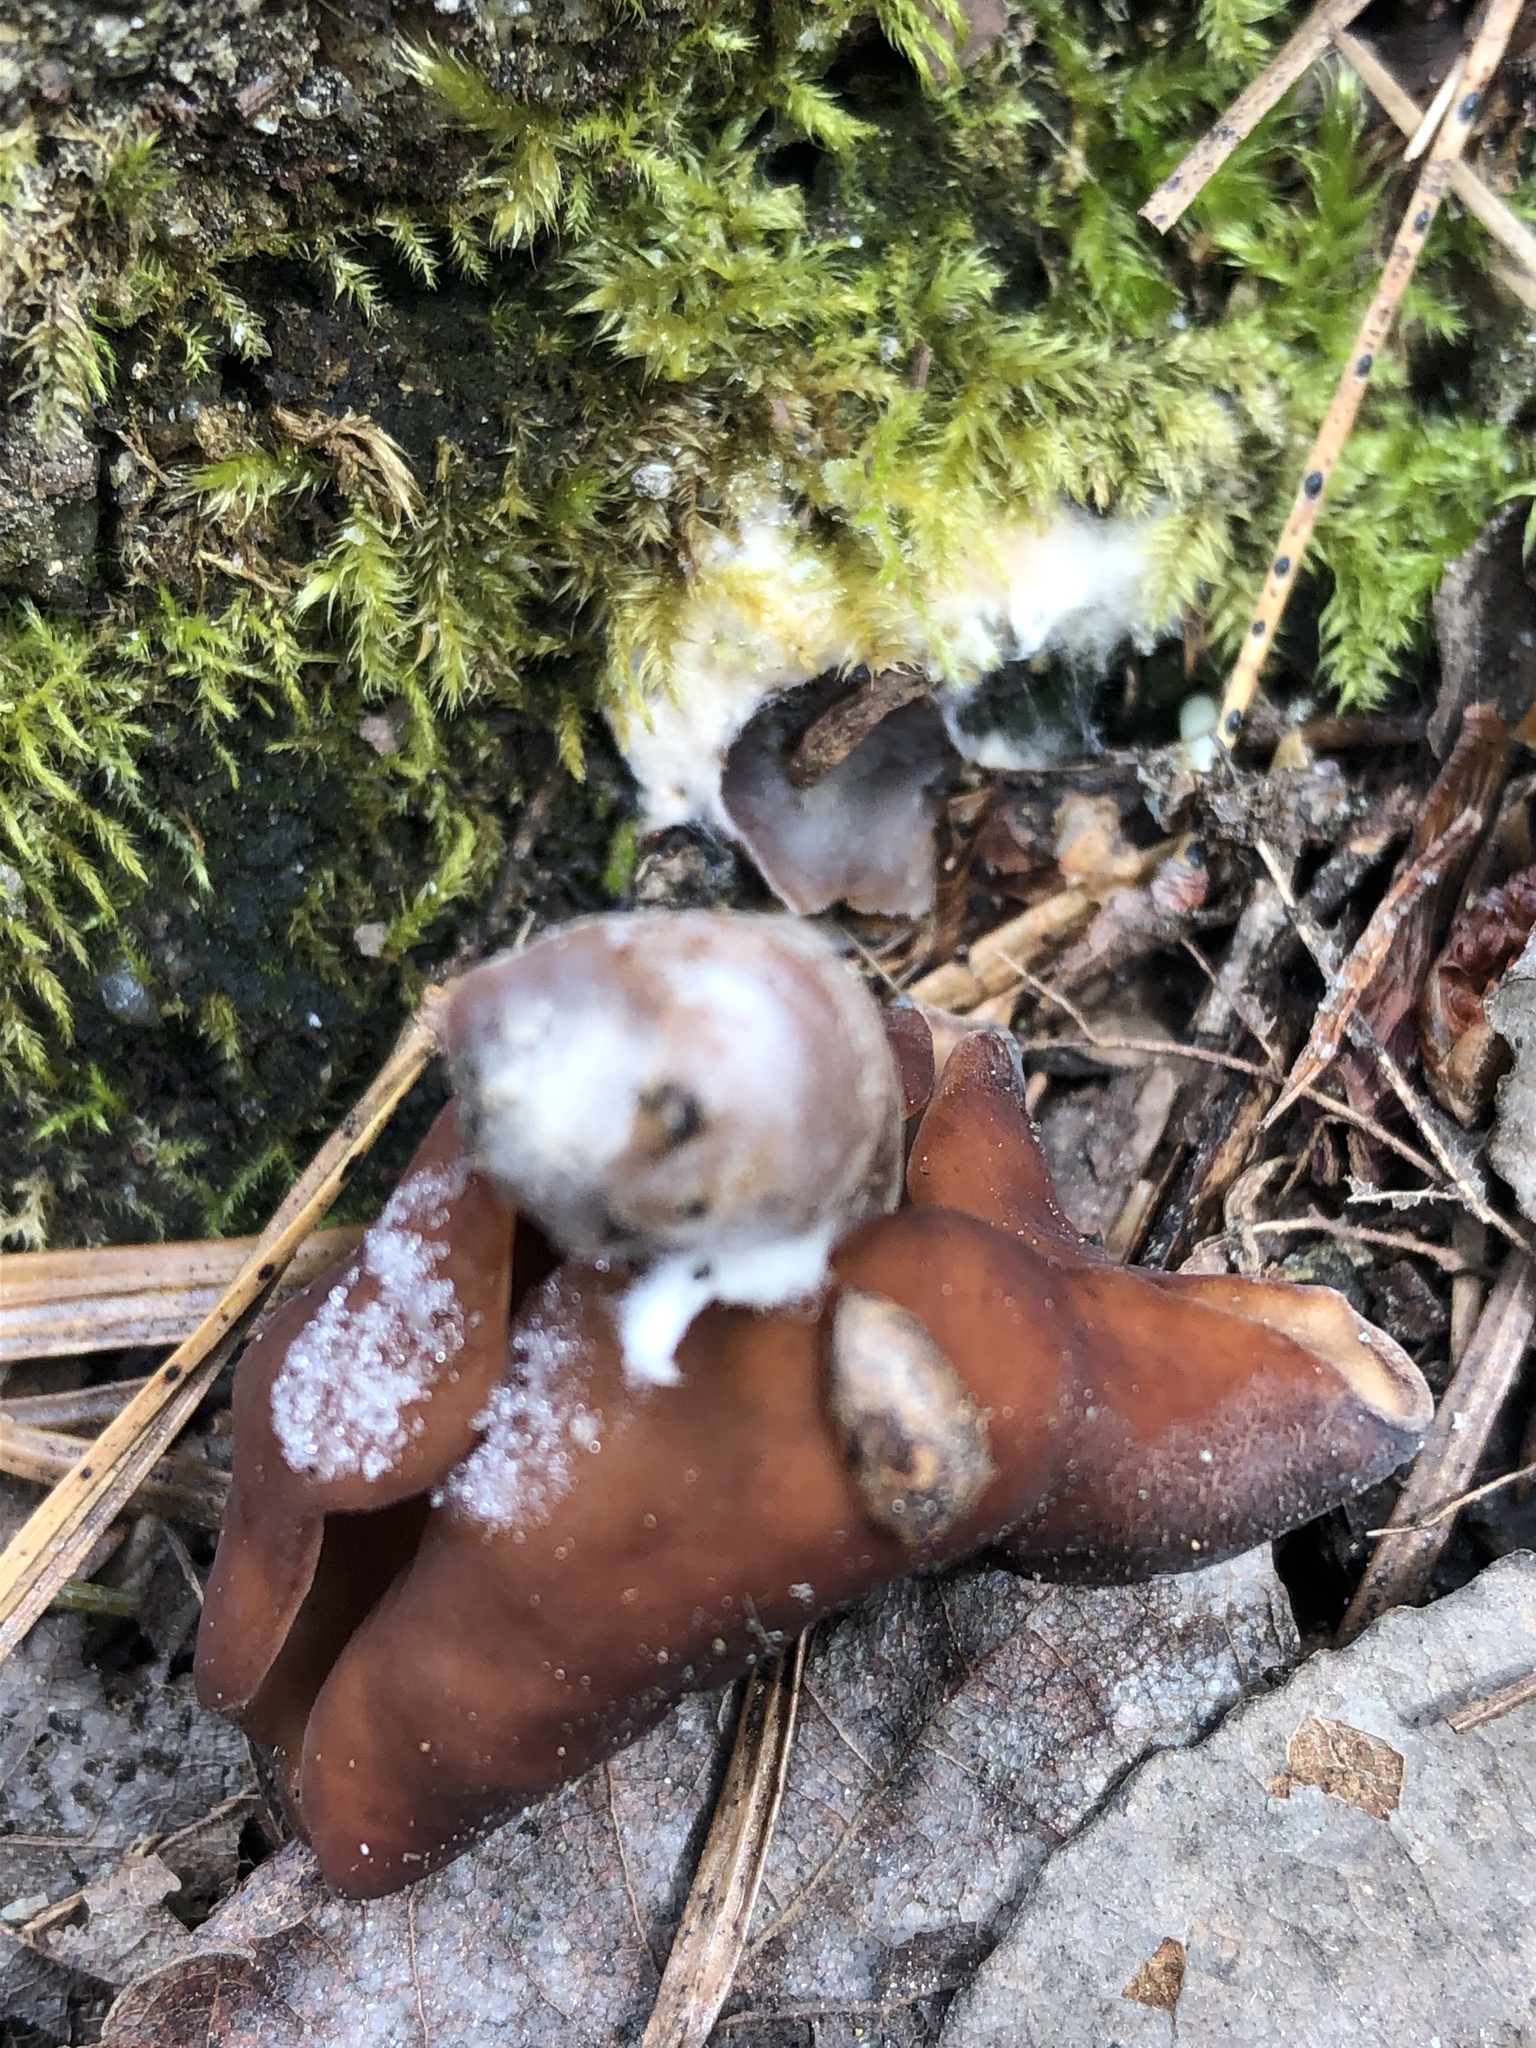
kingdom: Fungi
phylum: Ascomycota
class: Pezizomycetes
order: Pezizales
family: Discinaceae
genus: Gyromitra
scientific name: Gyromitra infula
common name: Pouched false morel
